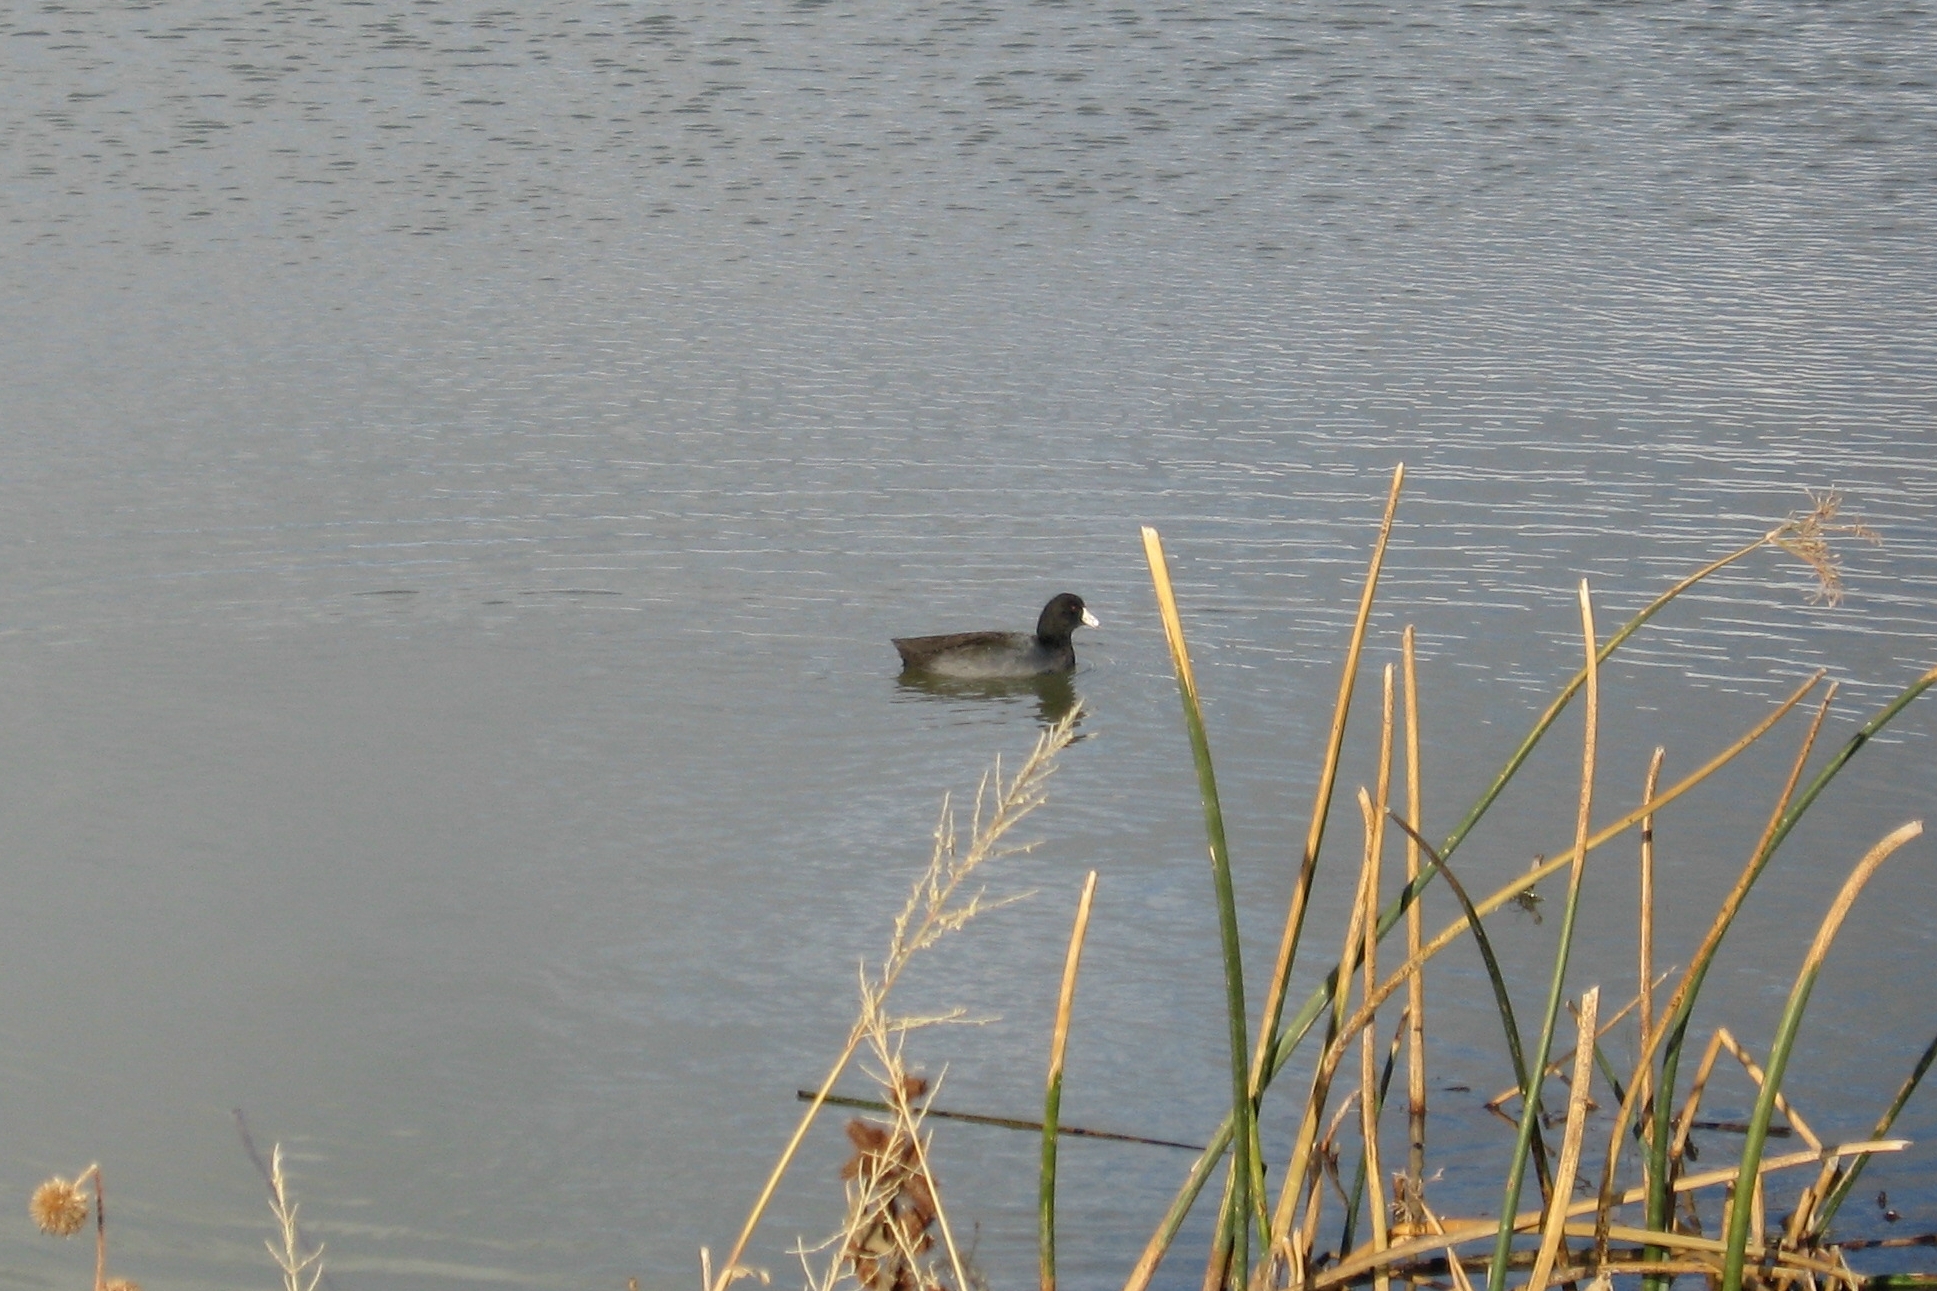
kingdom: Animalia
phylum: Chordata
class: Aves
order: Gruiformes
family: Rallidae
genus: Fulica
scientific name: Fulica americana
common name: American coot
